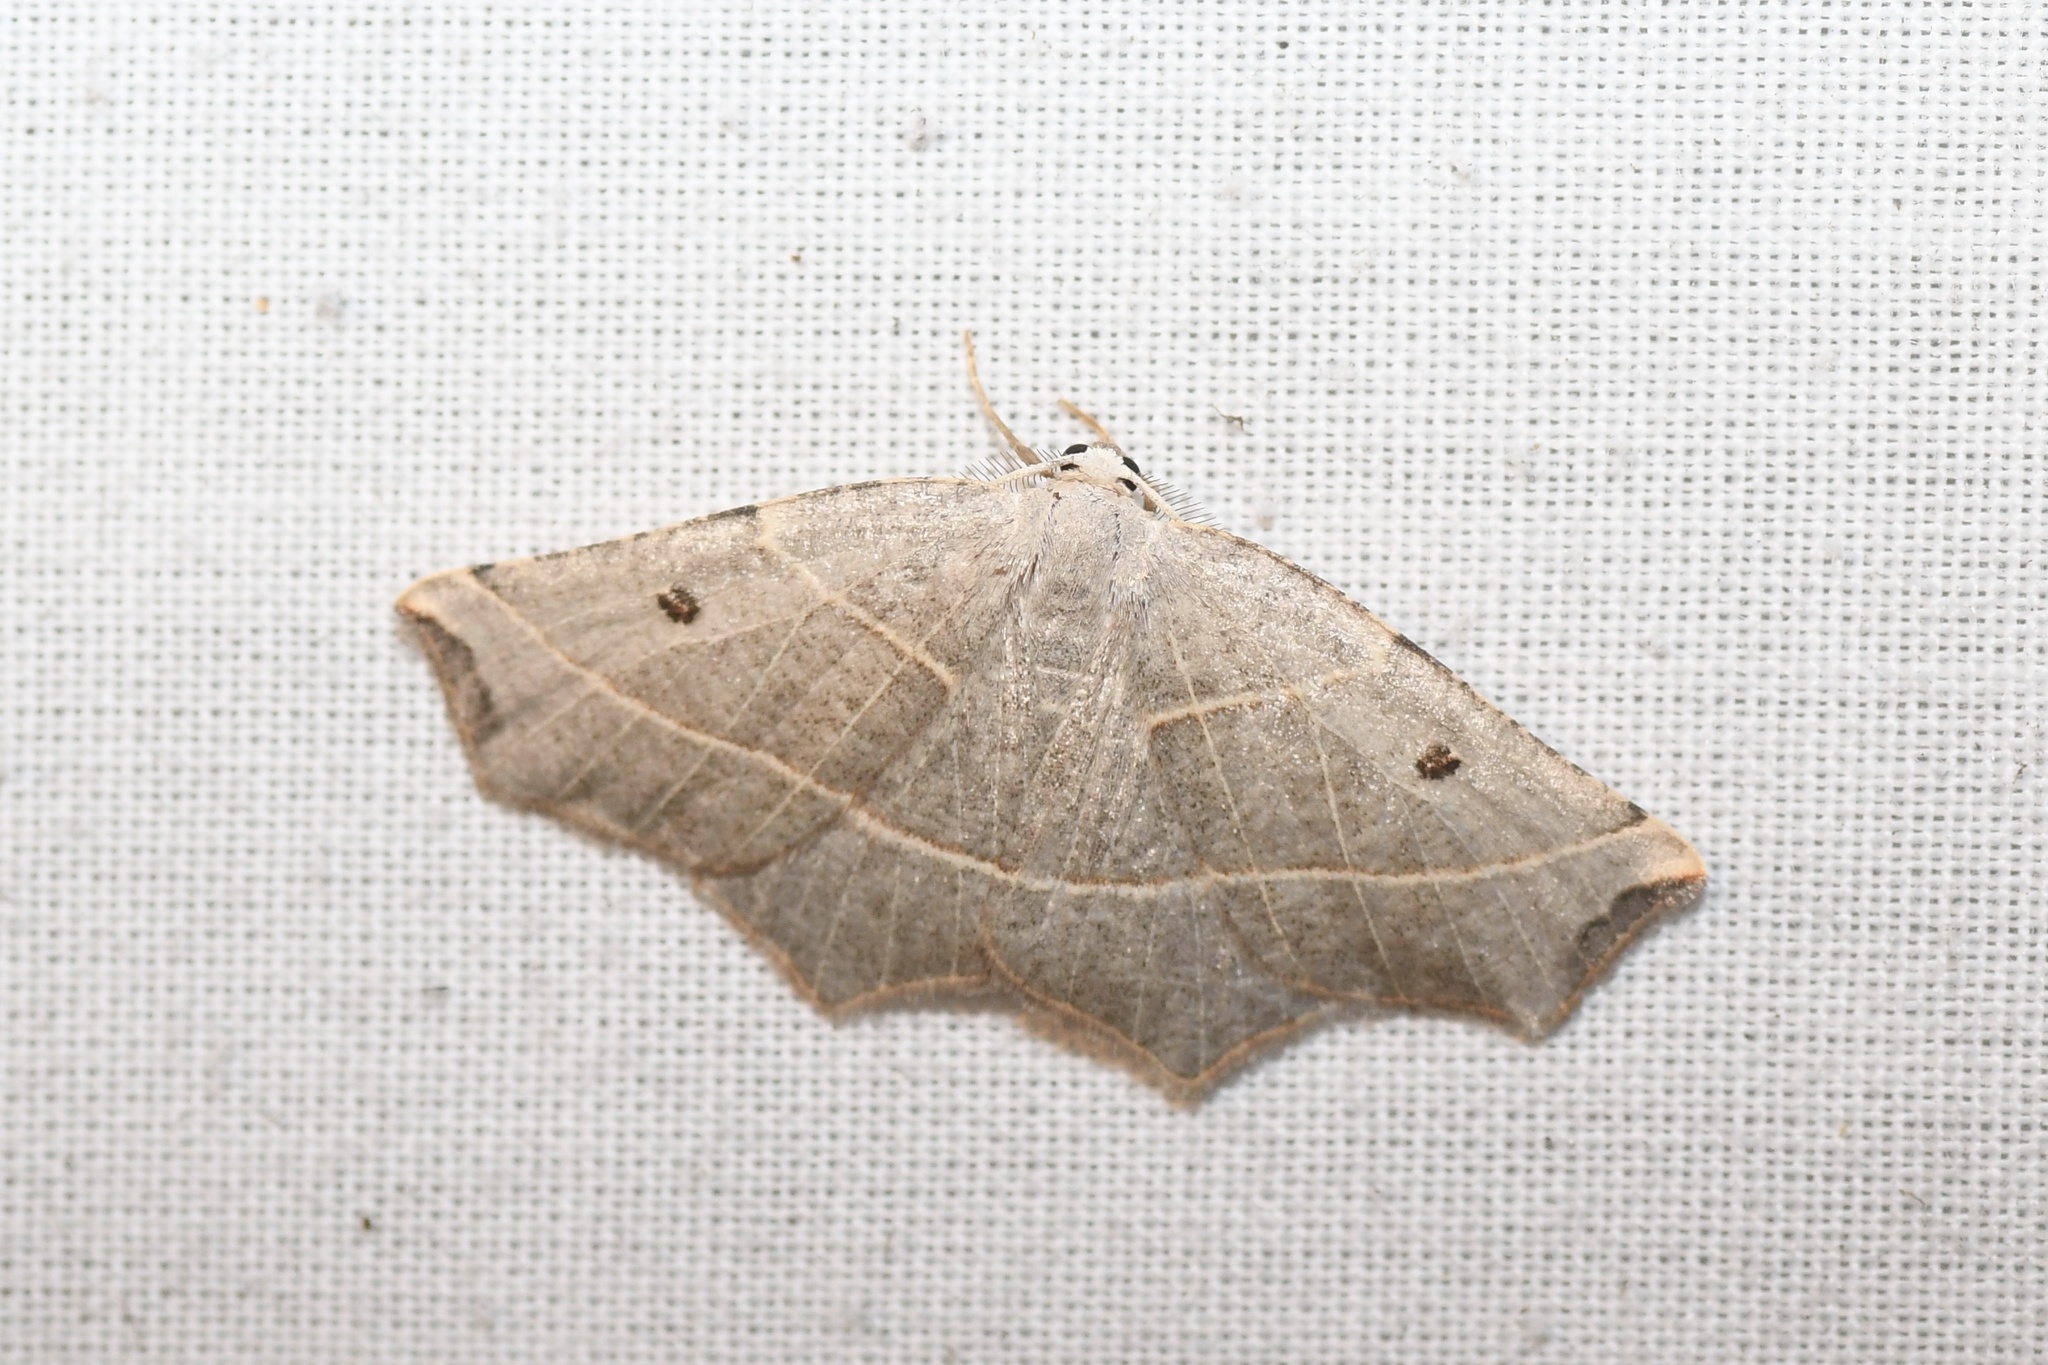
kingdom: Animalia
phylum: Arthropoda
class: Insecta
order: Lepidoptera
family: Geometridae
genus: Metanema
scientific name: Metanema inatomaria
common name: Pale metanema
